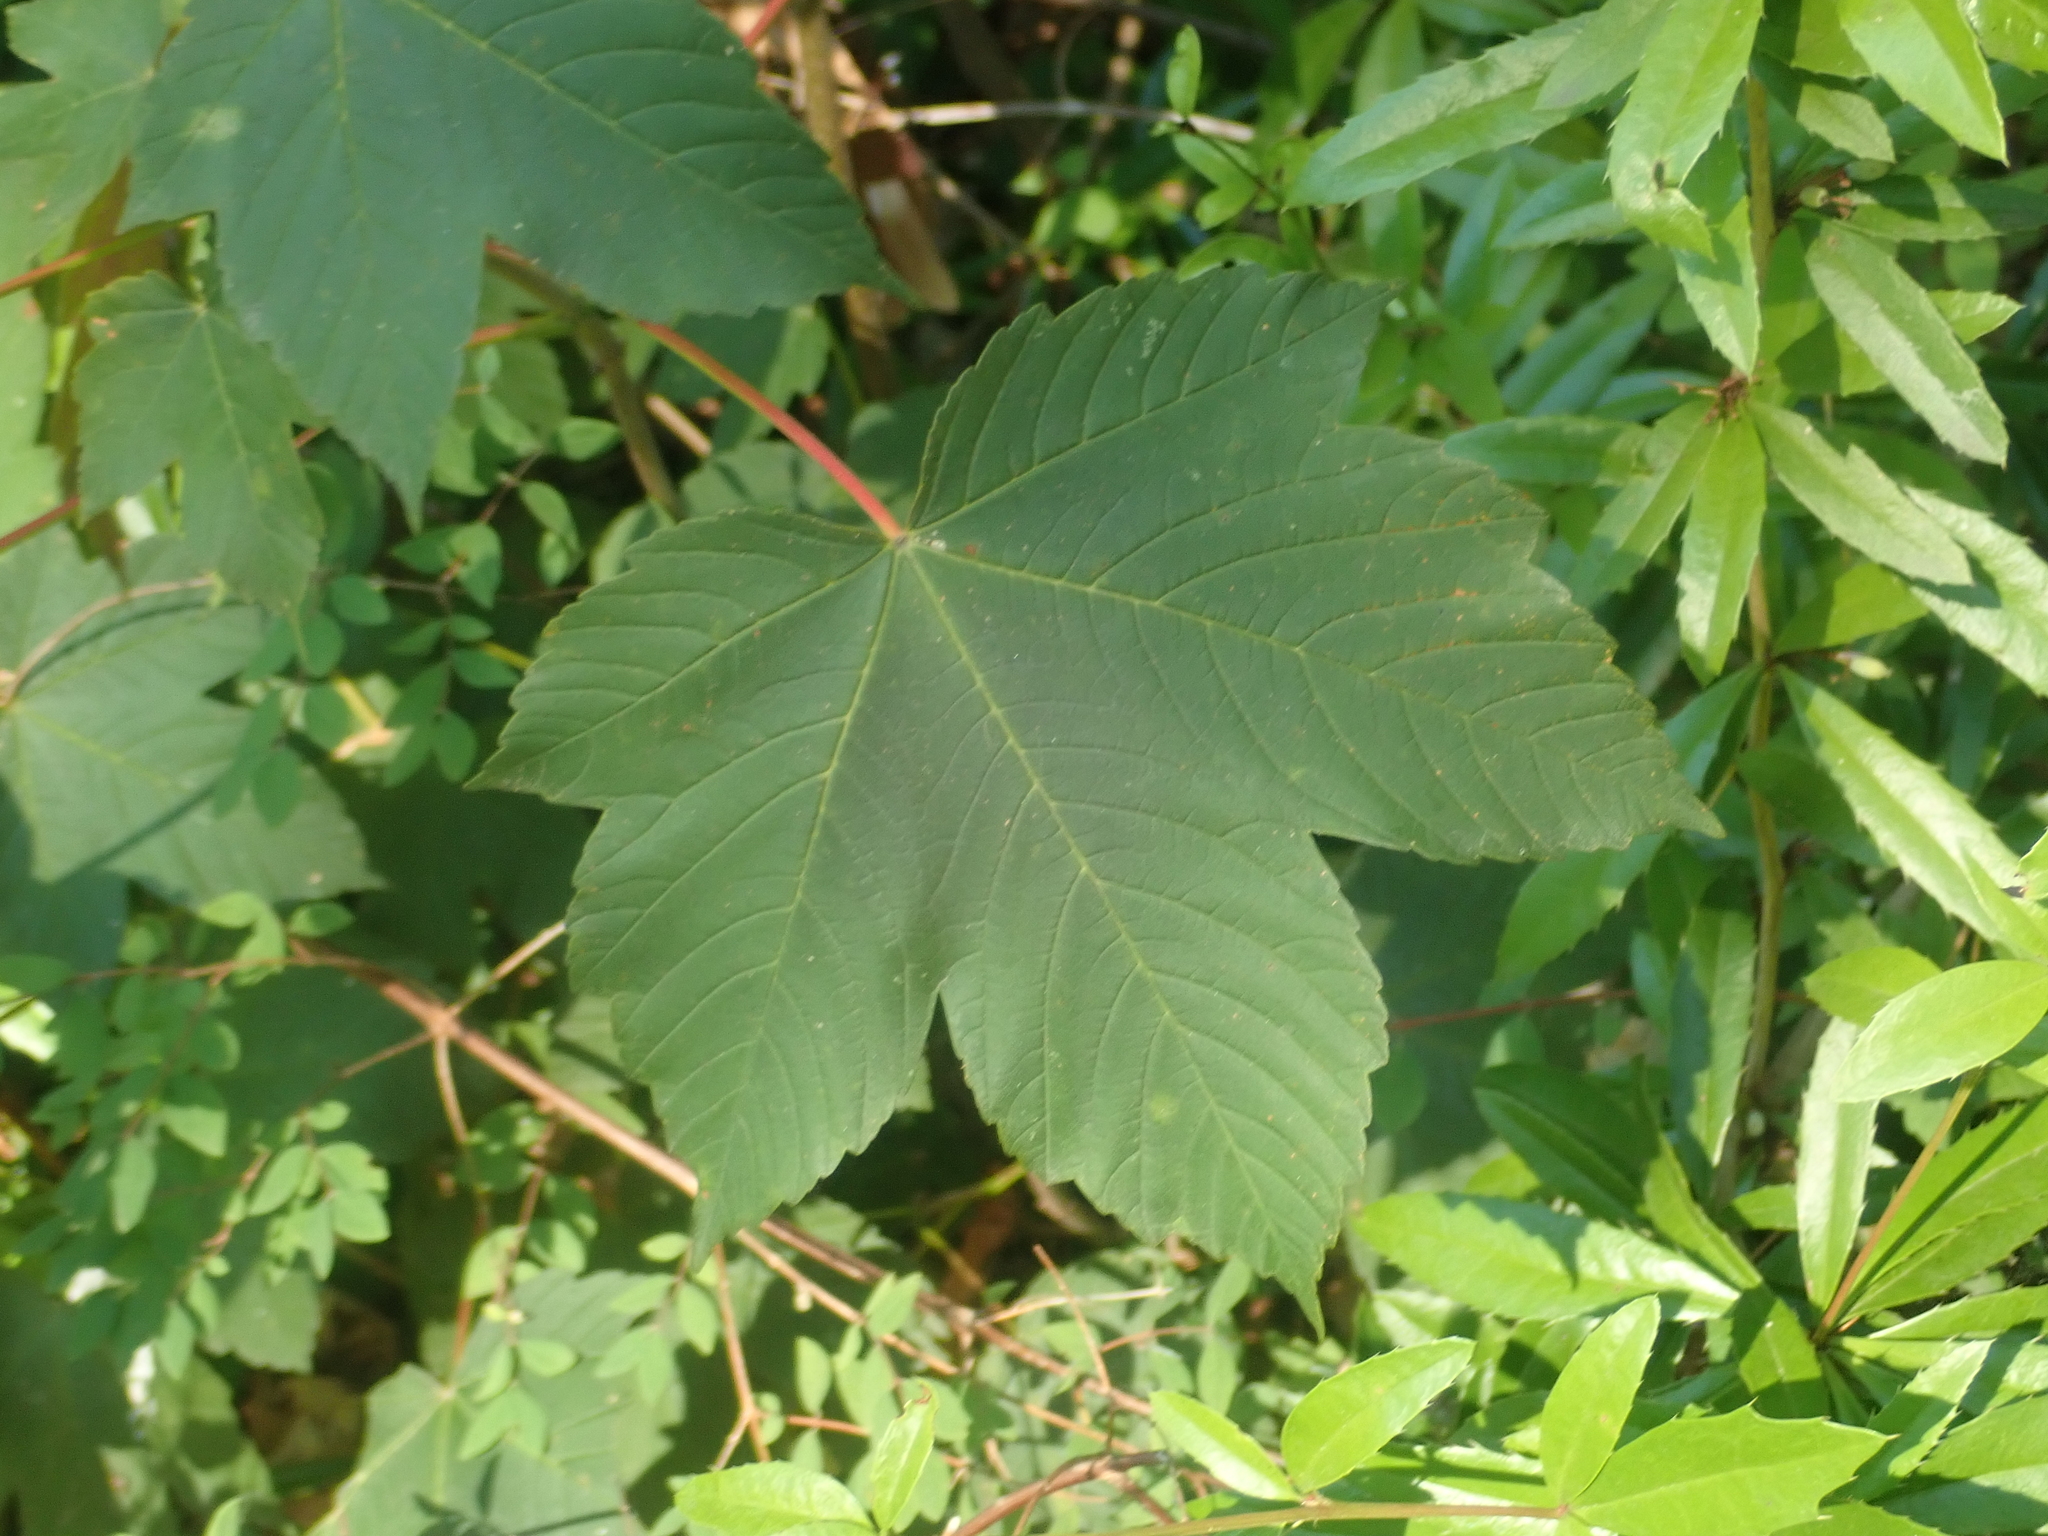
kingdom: Plantae
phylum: Tracheophyta
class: Magnoliopsida
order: Sapindales
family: Sapindaceae
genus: Acer
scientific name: Acer pseudoplatanus
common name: Sycamore
